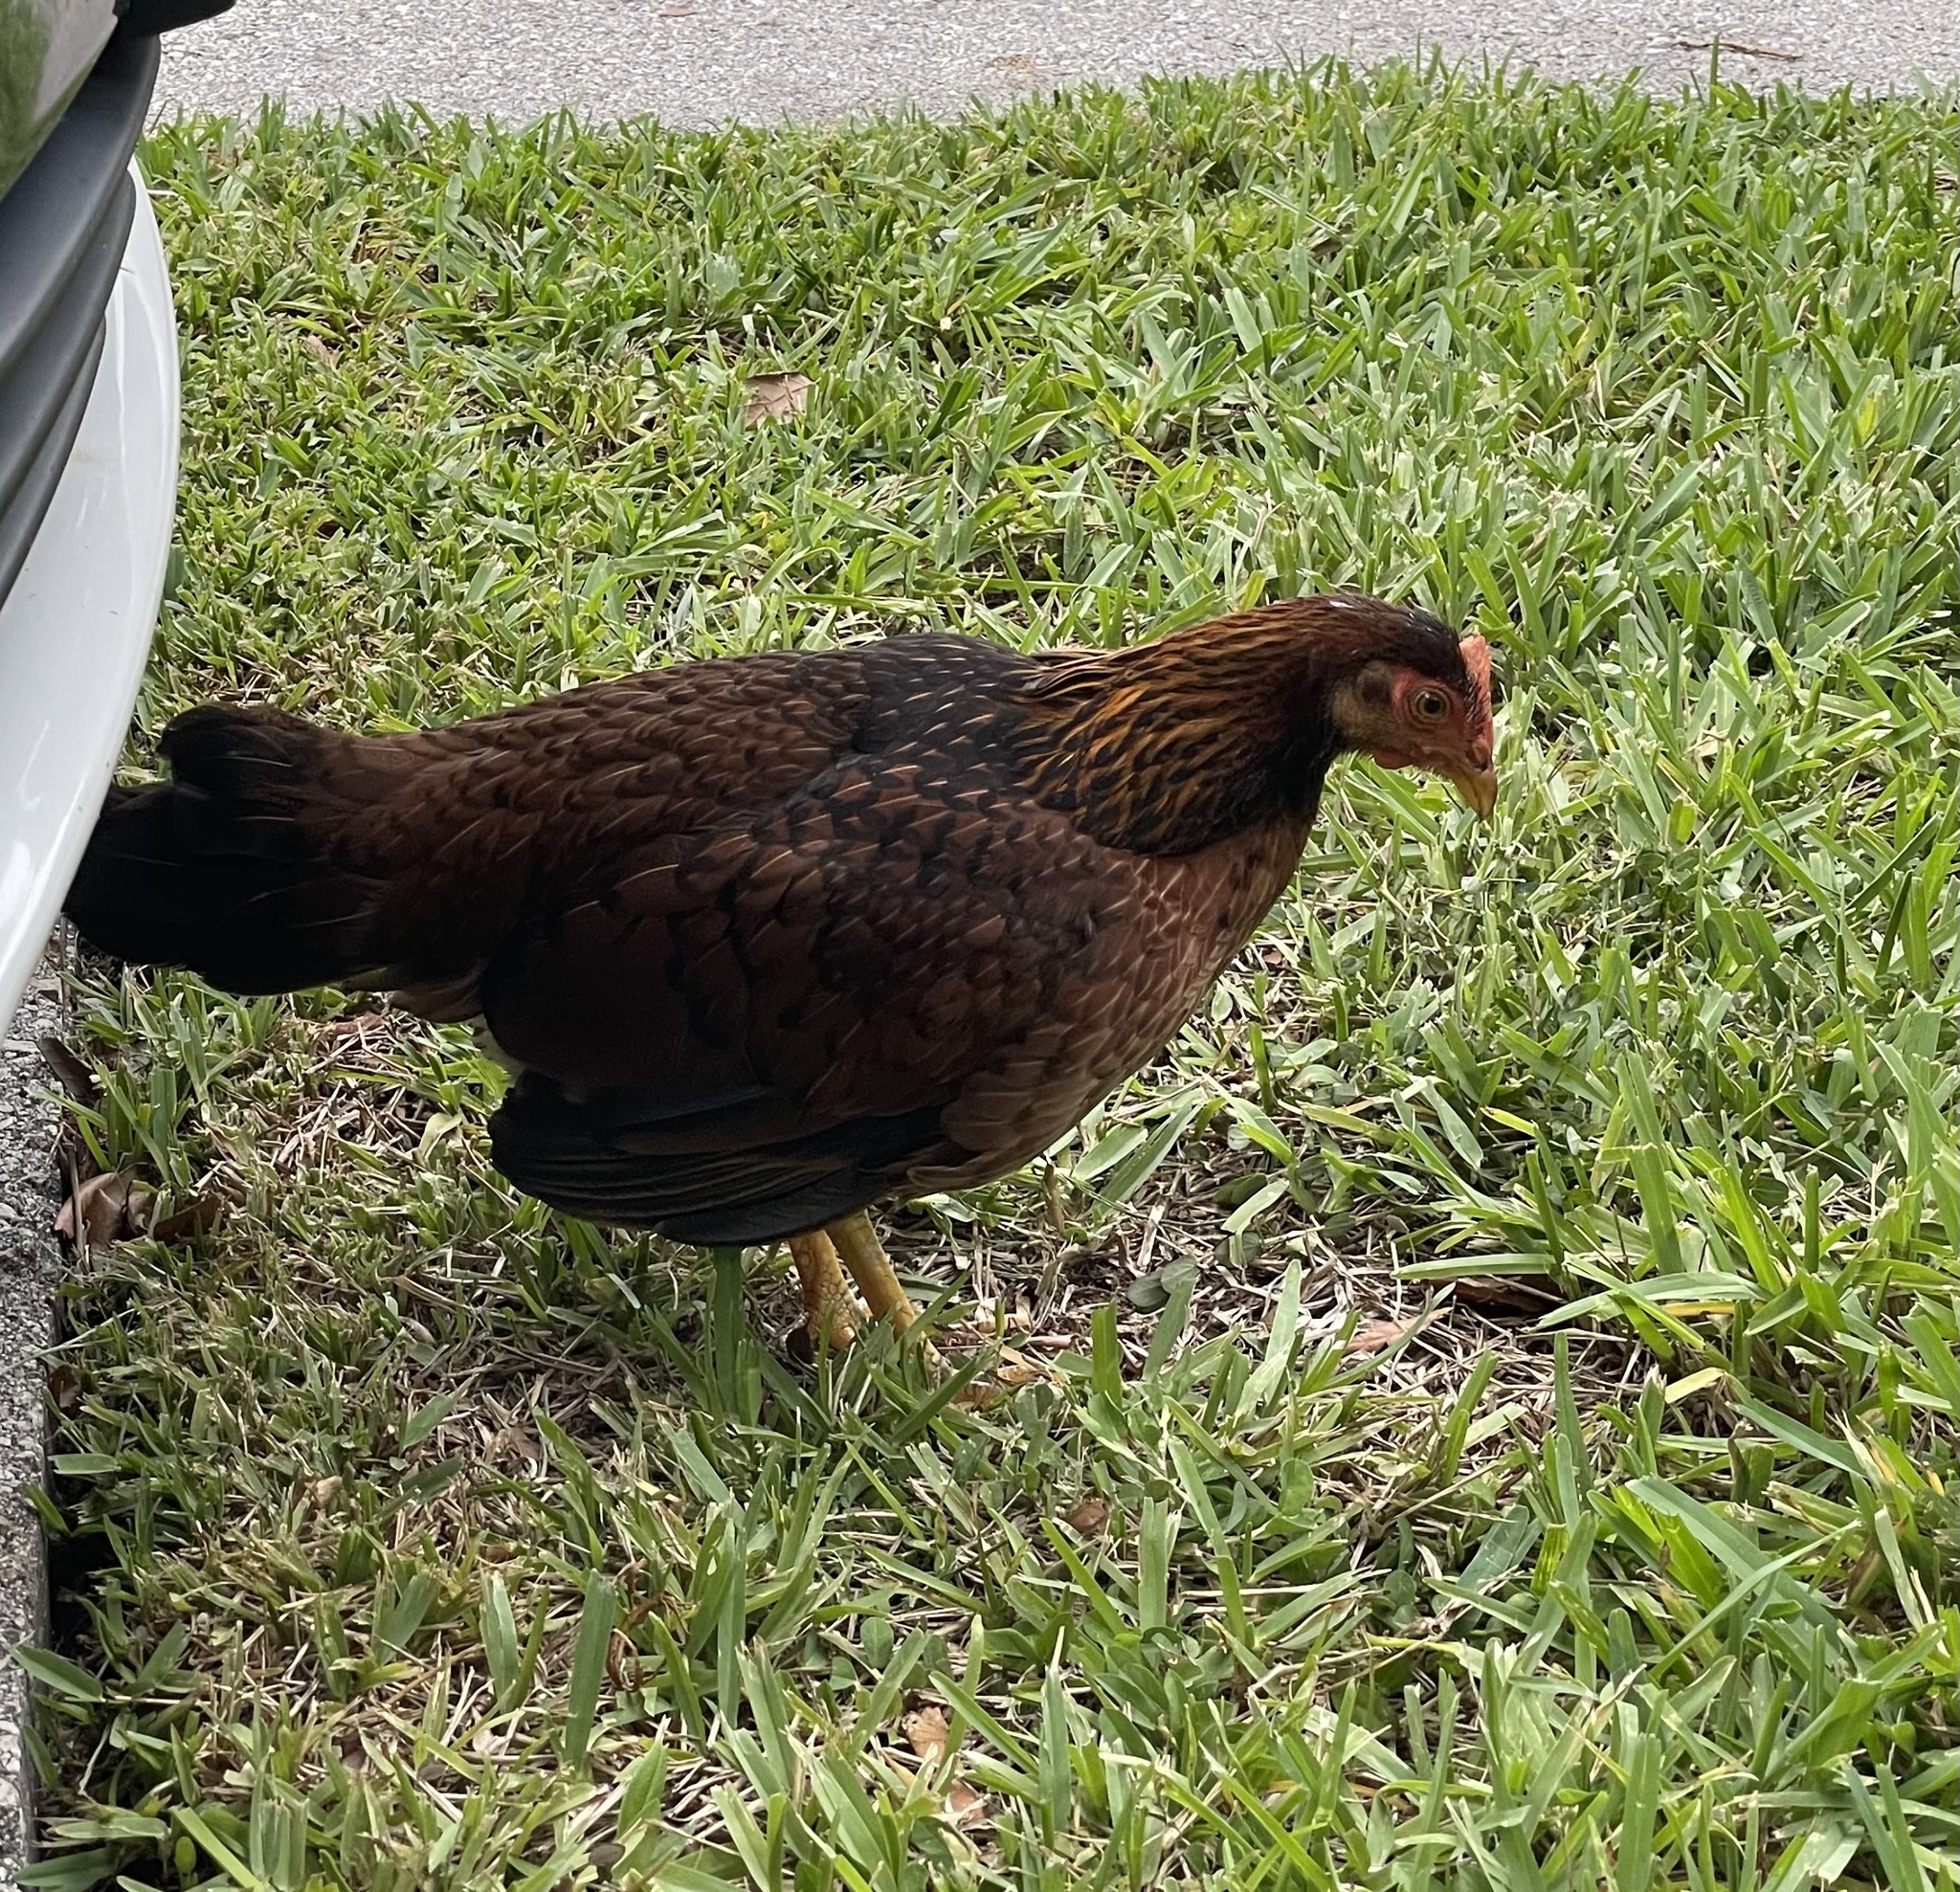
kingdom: Animalia
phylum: Chordata
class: Aves
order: Galliformes
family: Phasianidae
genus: Gallus
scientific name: Gallus gallus
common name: Red junglefowl
